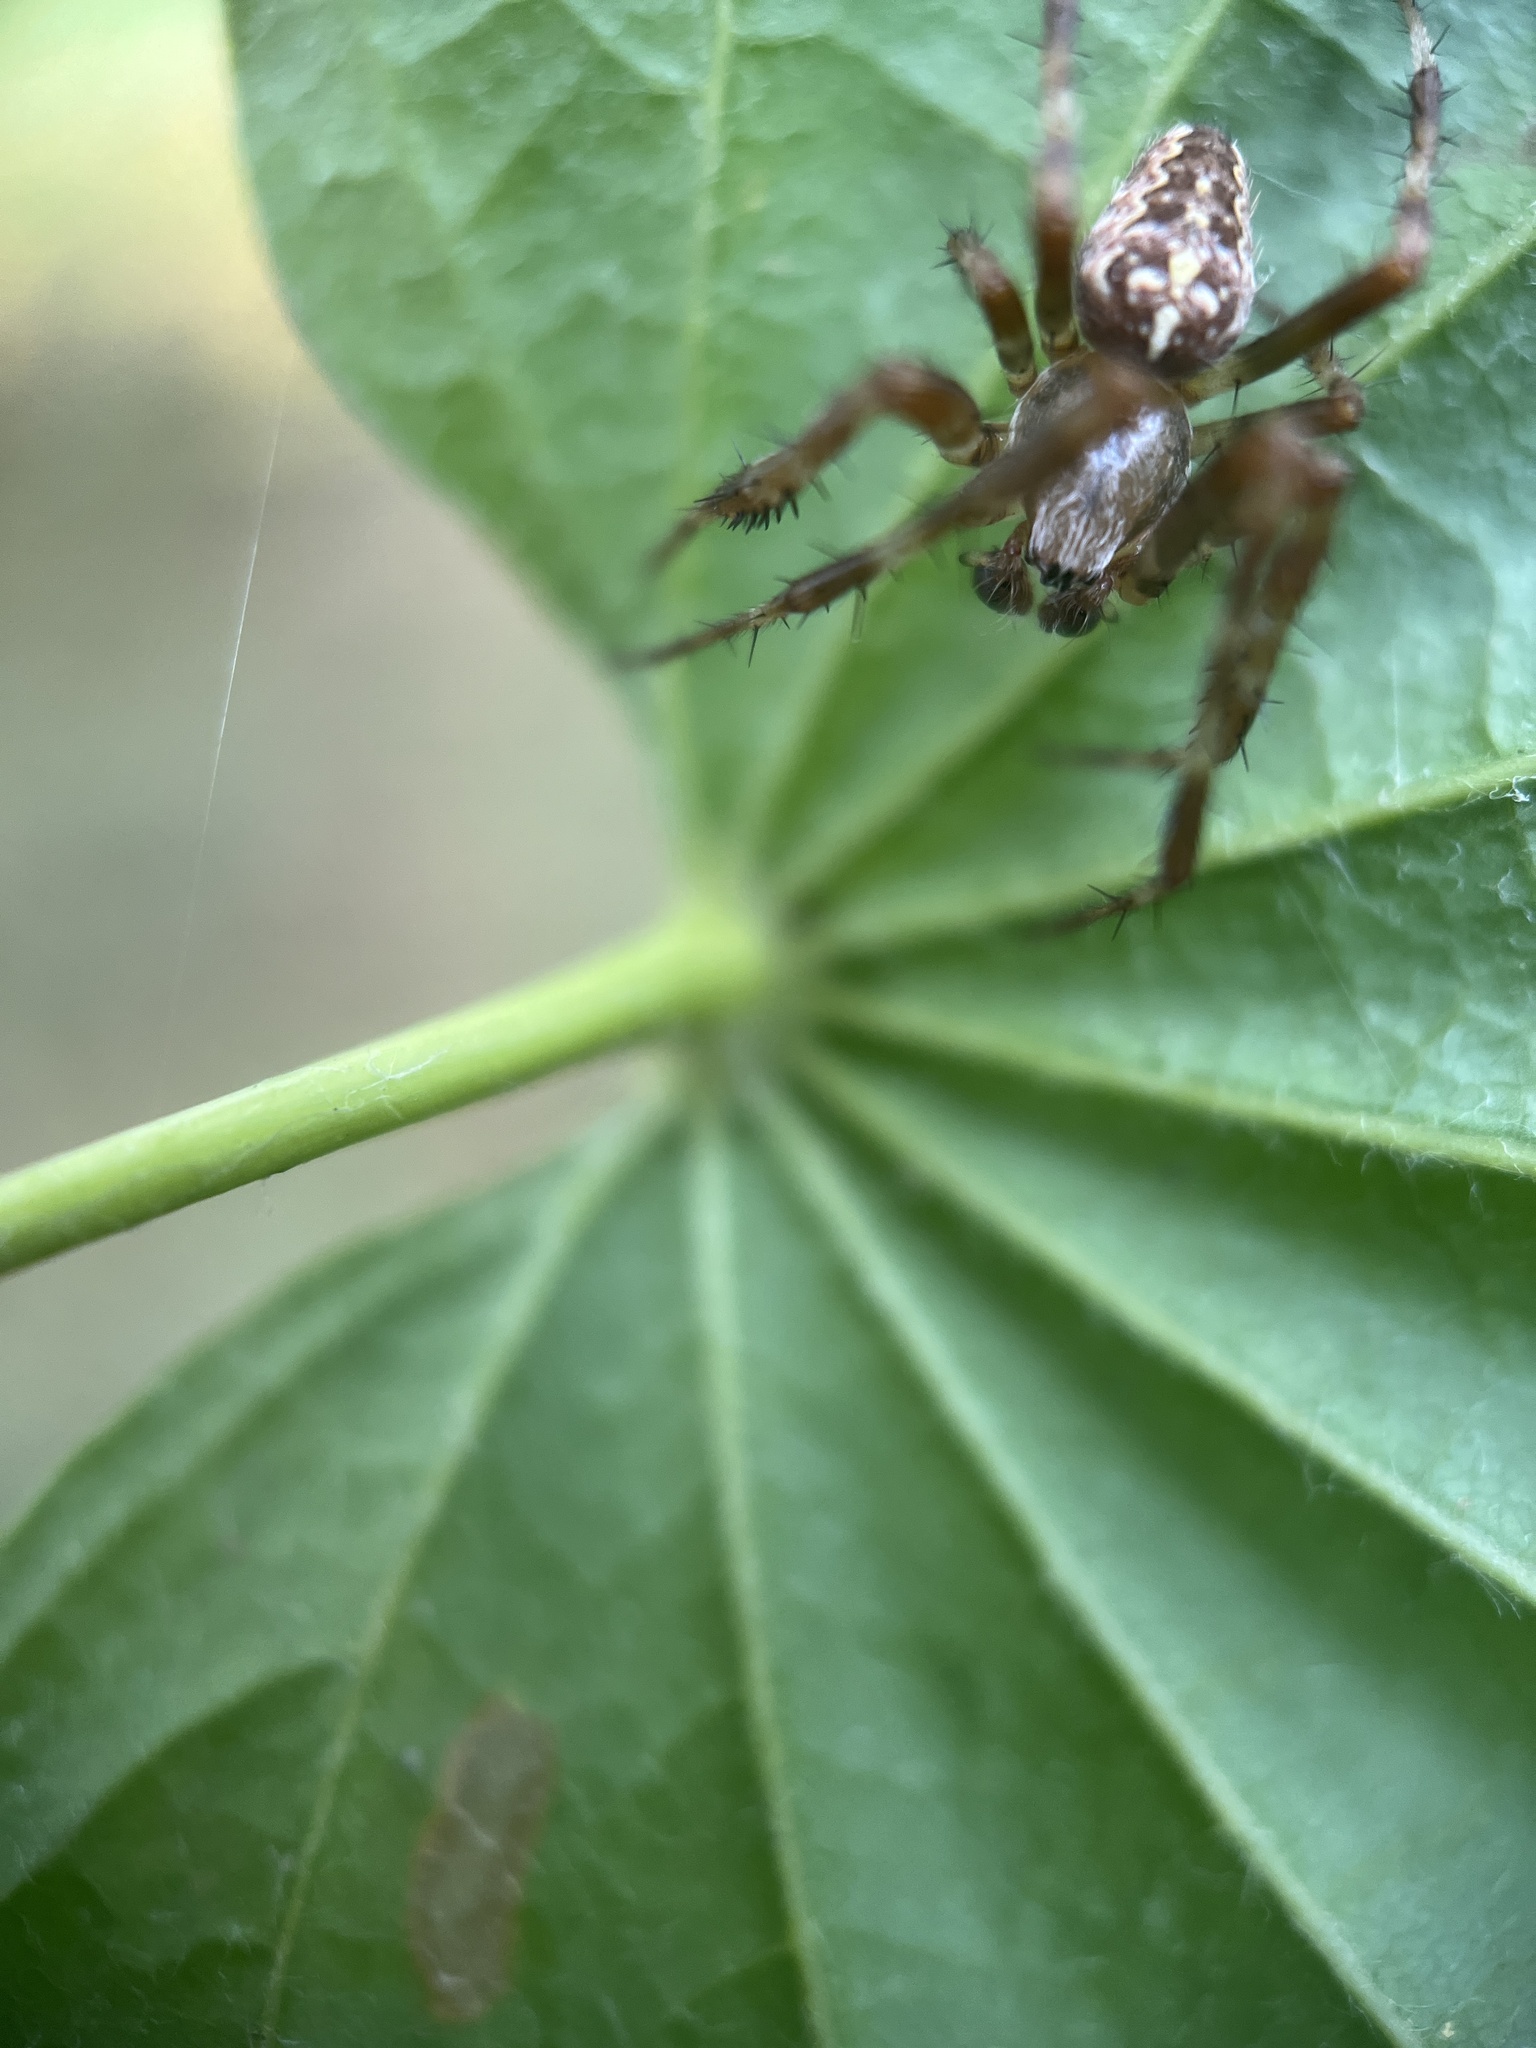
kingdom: Animalia
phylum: Arthropoda
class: Arachnida
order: Araneae
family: Araneidae
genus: Araneus
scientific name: Araneus diadematus
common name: Cross orbweaver
